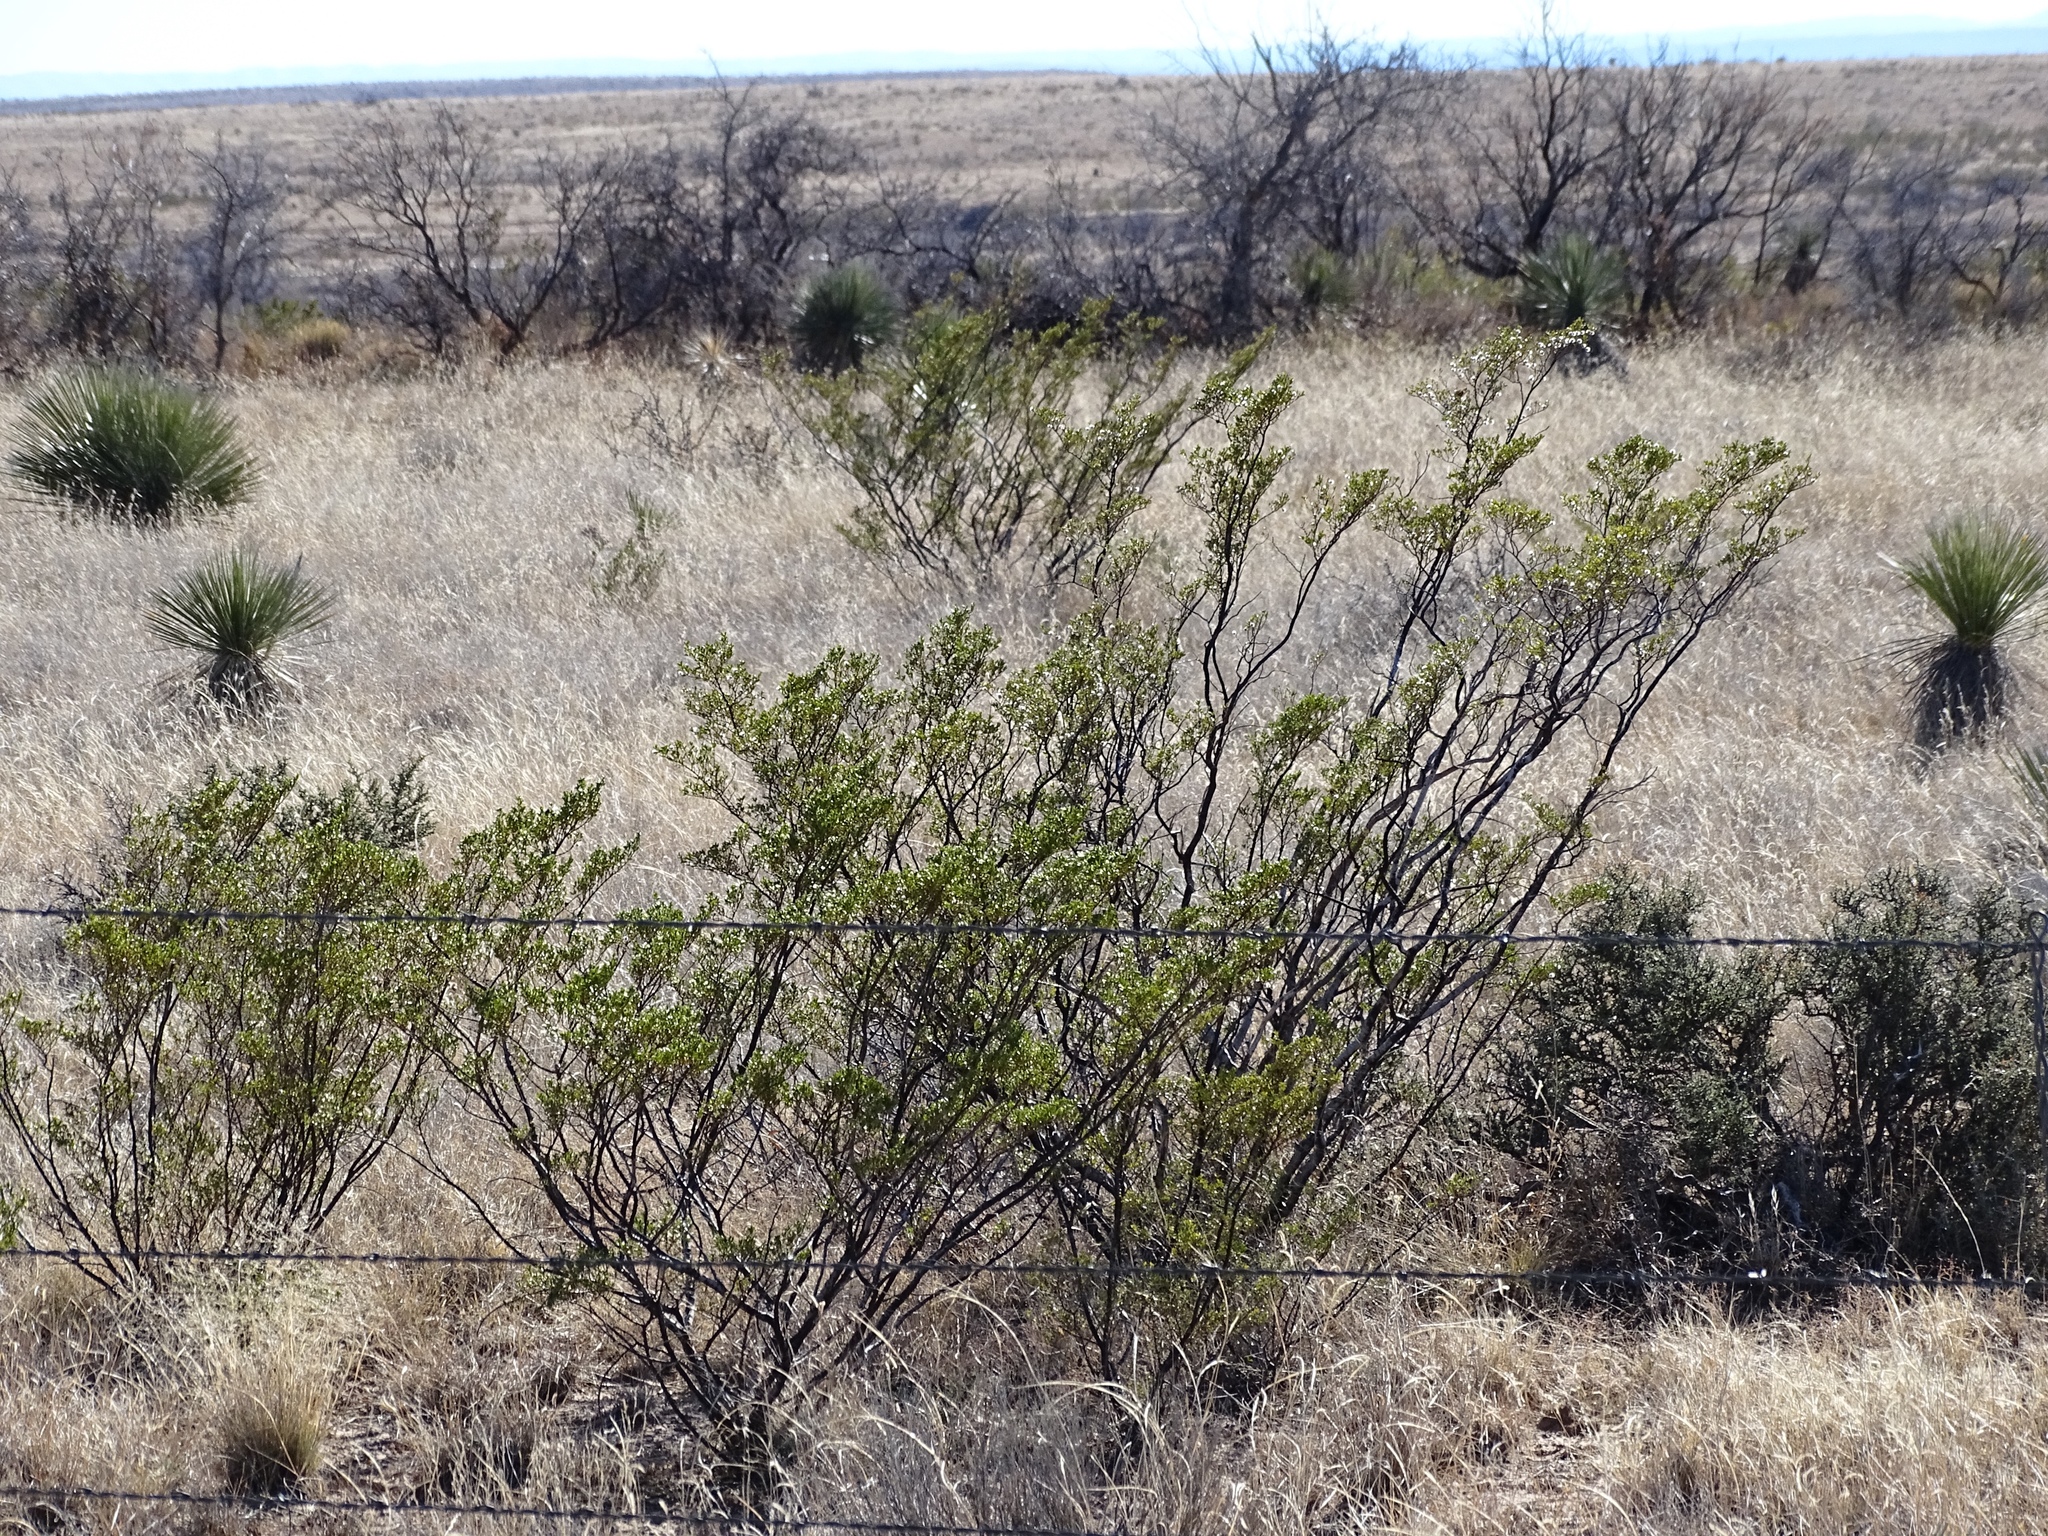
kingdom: Plantae
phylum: Tracheophyta
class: Magnoliopsida
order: Zygophyllales
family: Zygophyllaceae
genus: Larrea
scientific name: Larrea tridentata
